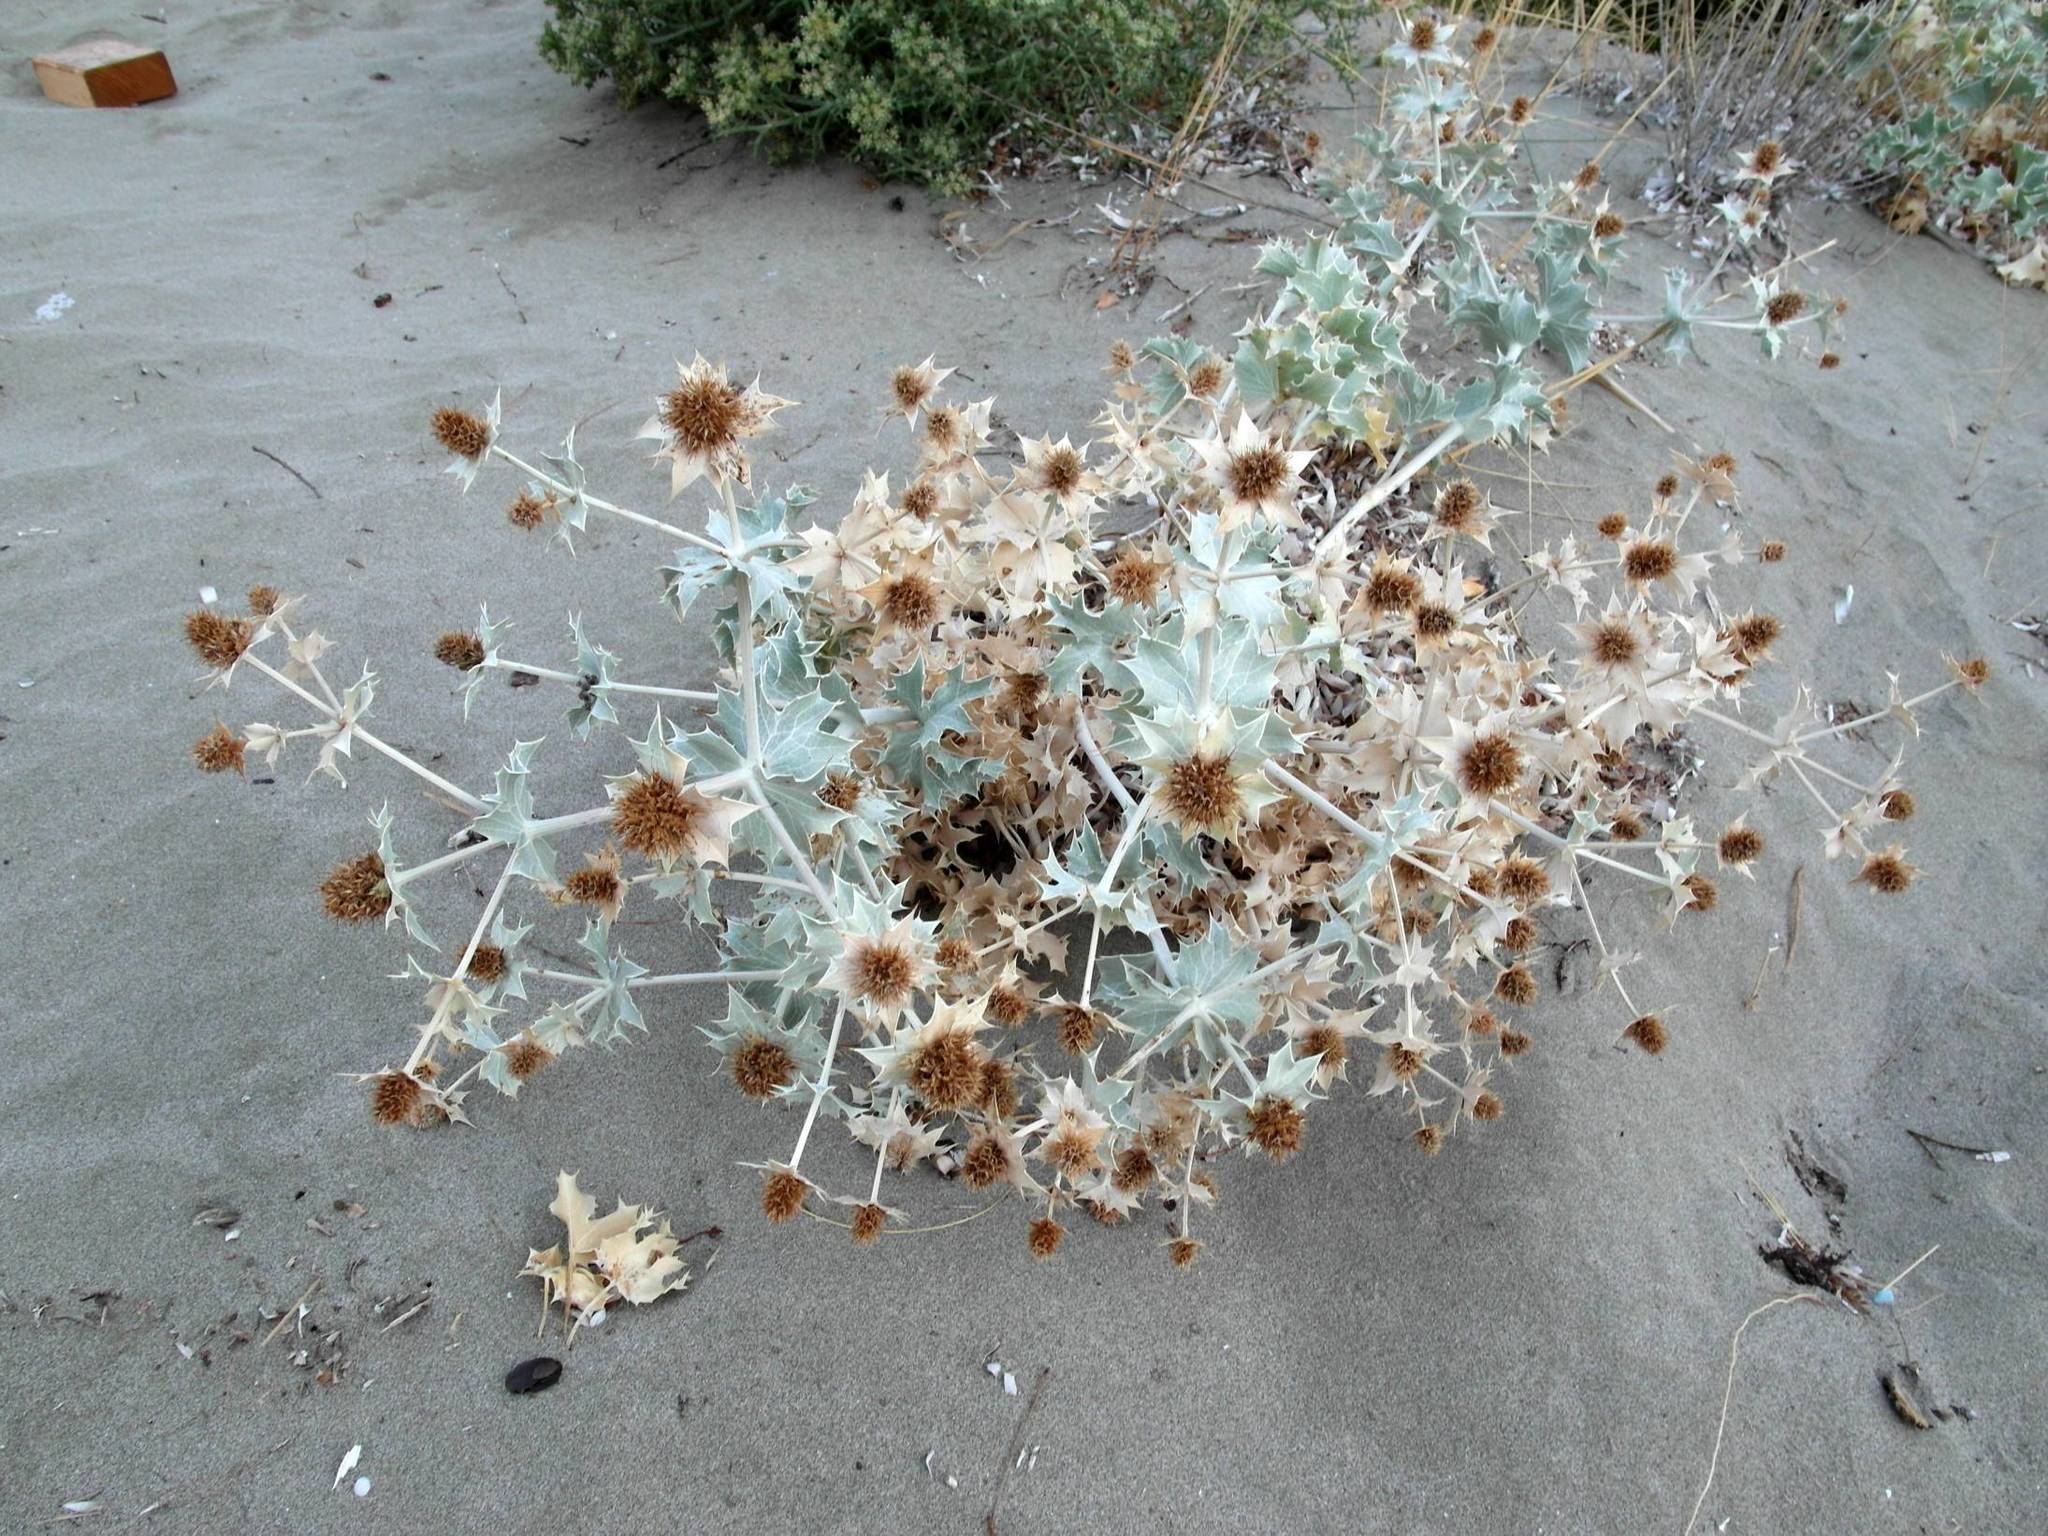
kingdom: Plantae
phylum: Tracheophyta
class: Magnoliopsida
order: Apiales
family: Apiaceae
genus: Eryngium
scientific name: Eryngium maritimum
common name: Sea-holly
